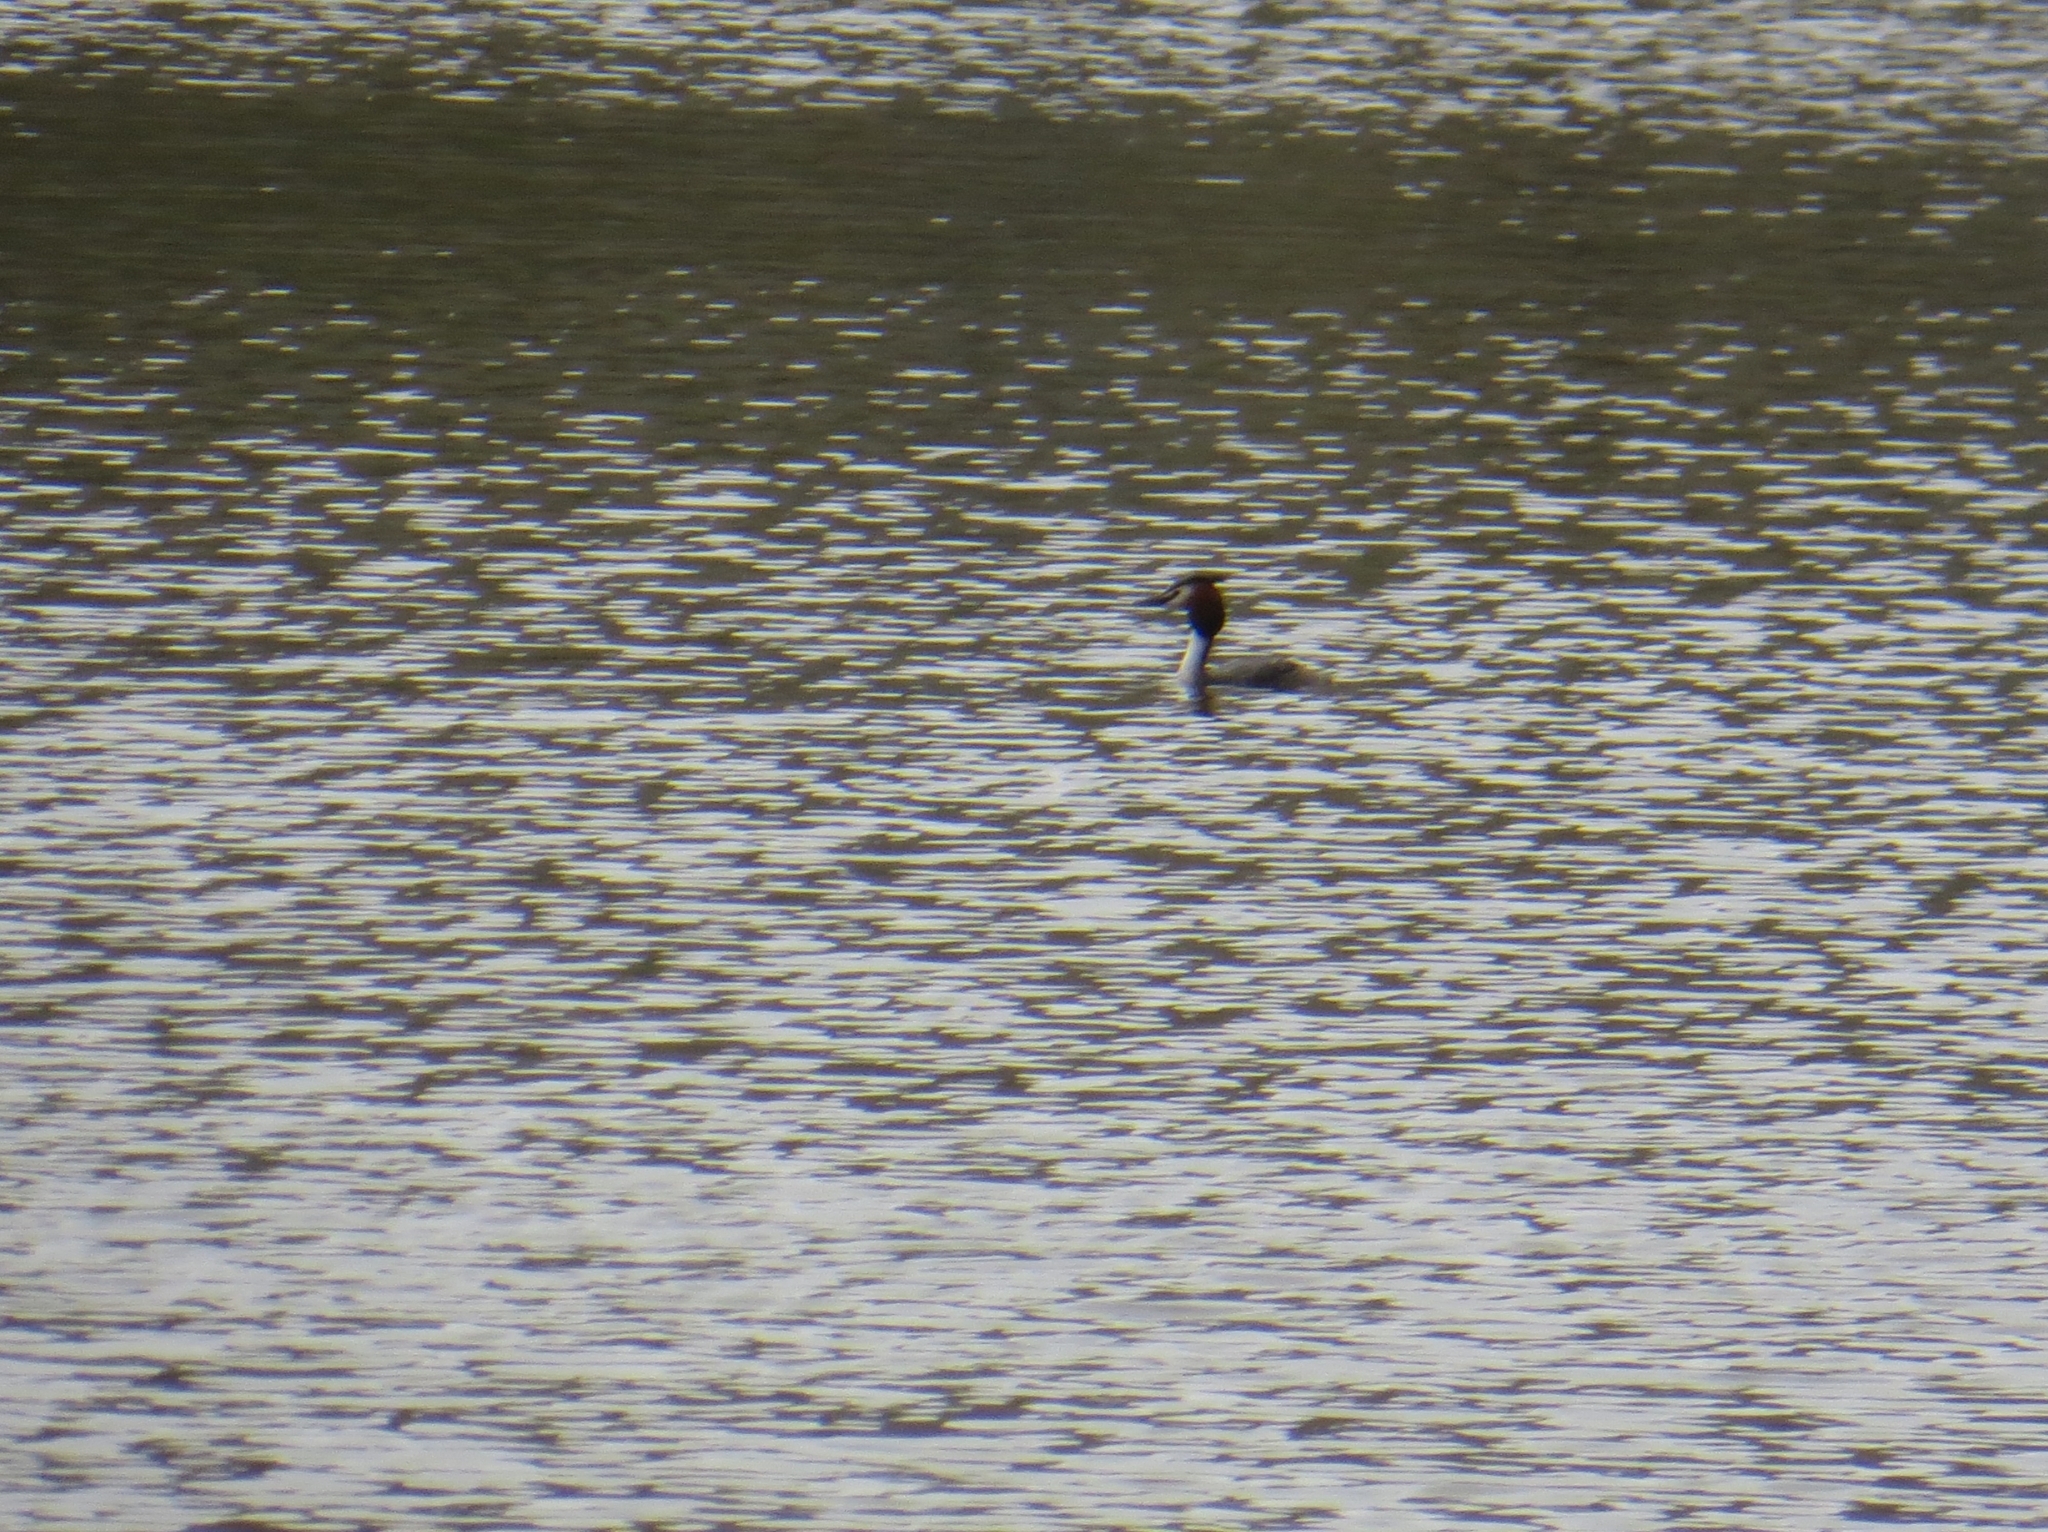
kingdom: Animalia
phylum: Chordata
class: Aves
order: Podicipediformes
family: Podicipedidae
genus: Podiceps
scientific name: Podiceps cristatus
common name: Great crested grebe
